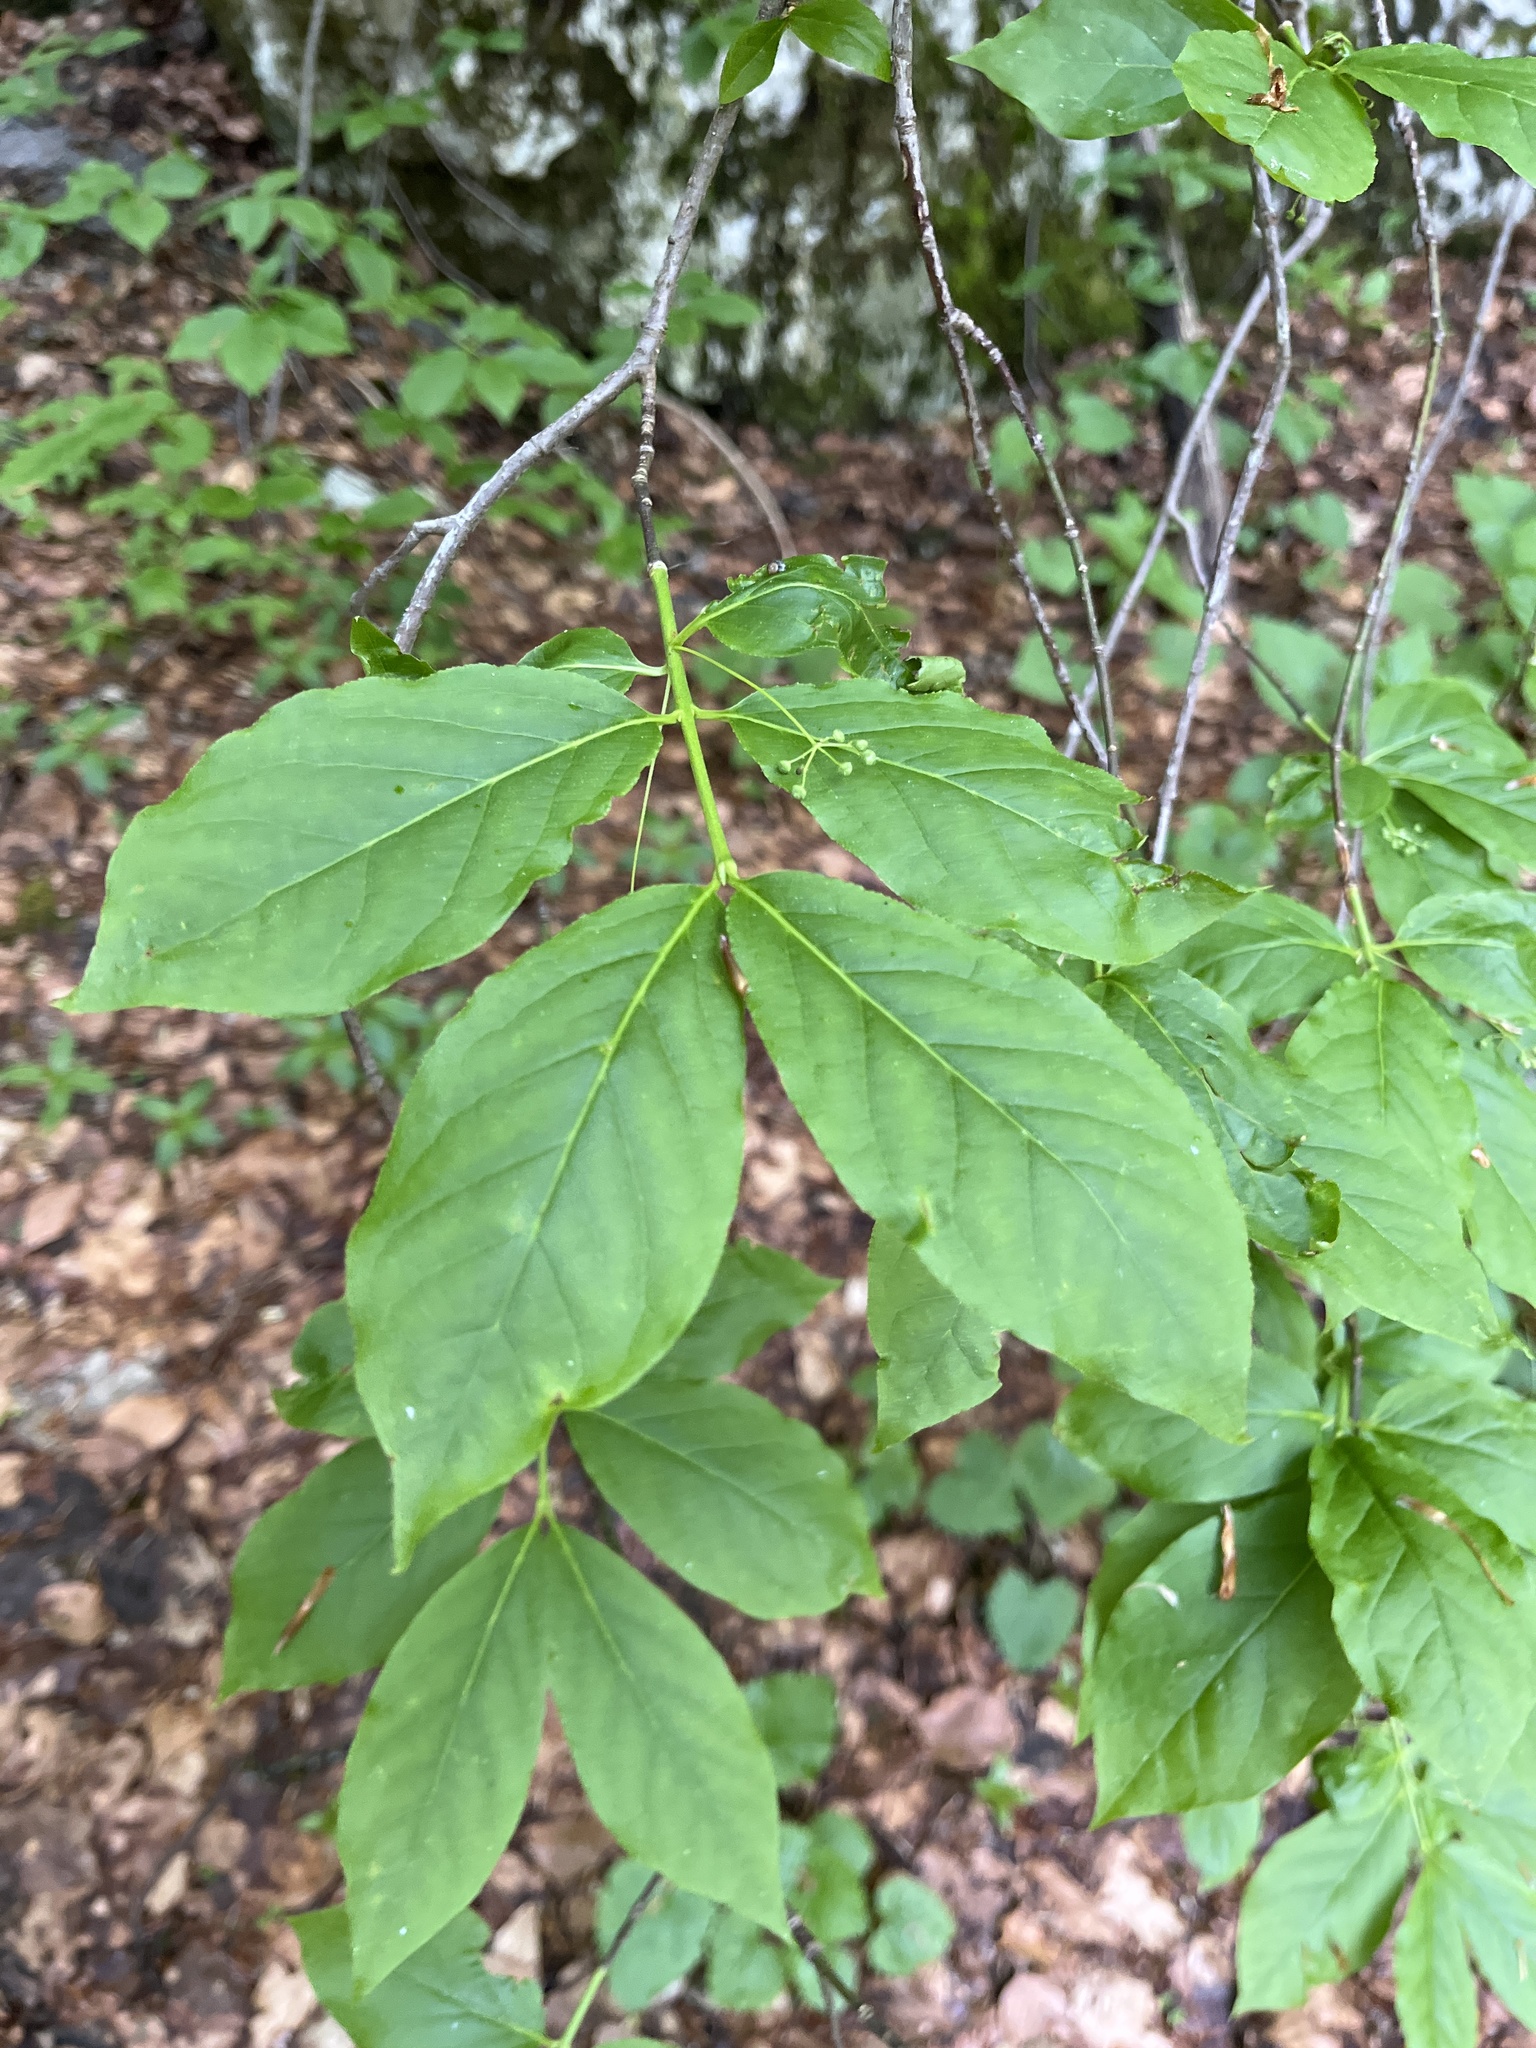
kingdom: Plantae
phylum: Tracheophyta
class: Magnoliopsida
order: Celastrales
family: Celastraceae
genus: Euonymus
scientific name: Euonymus latifolius
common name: Large-leaved spindle
